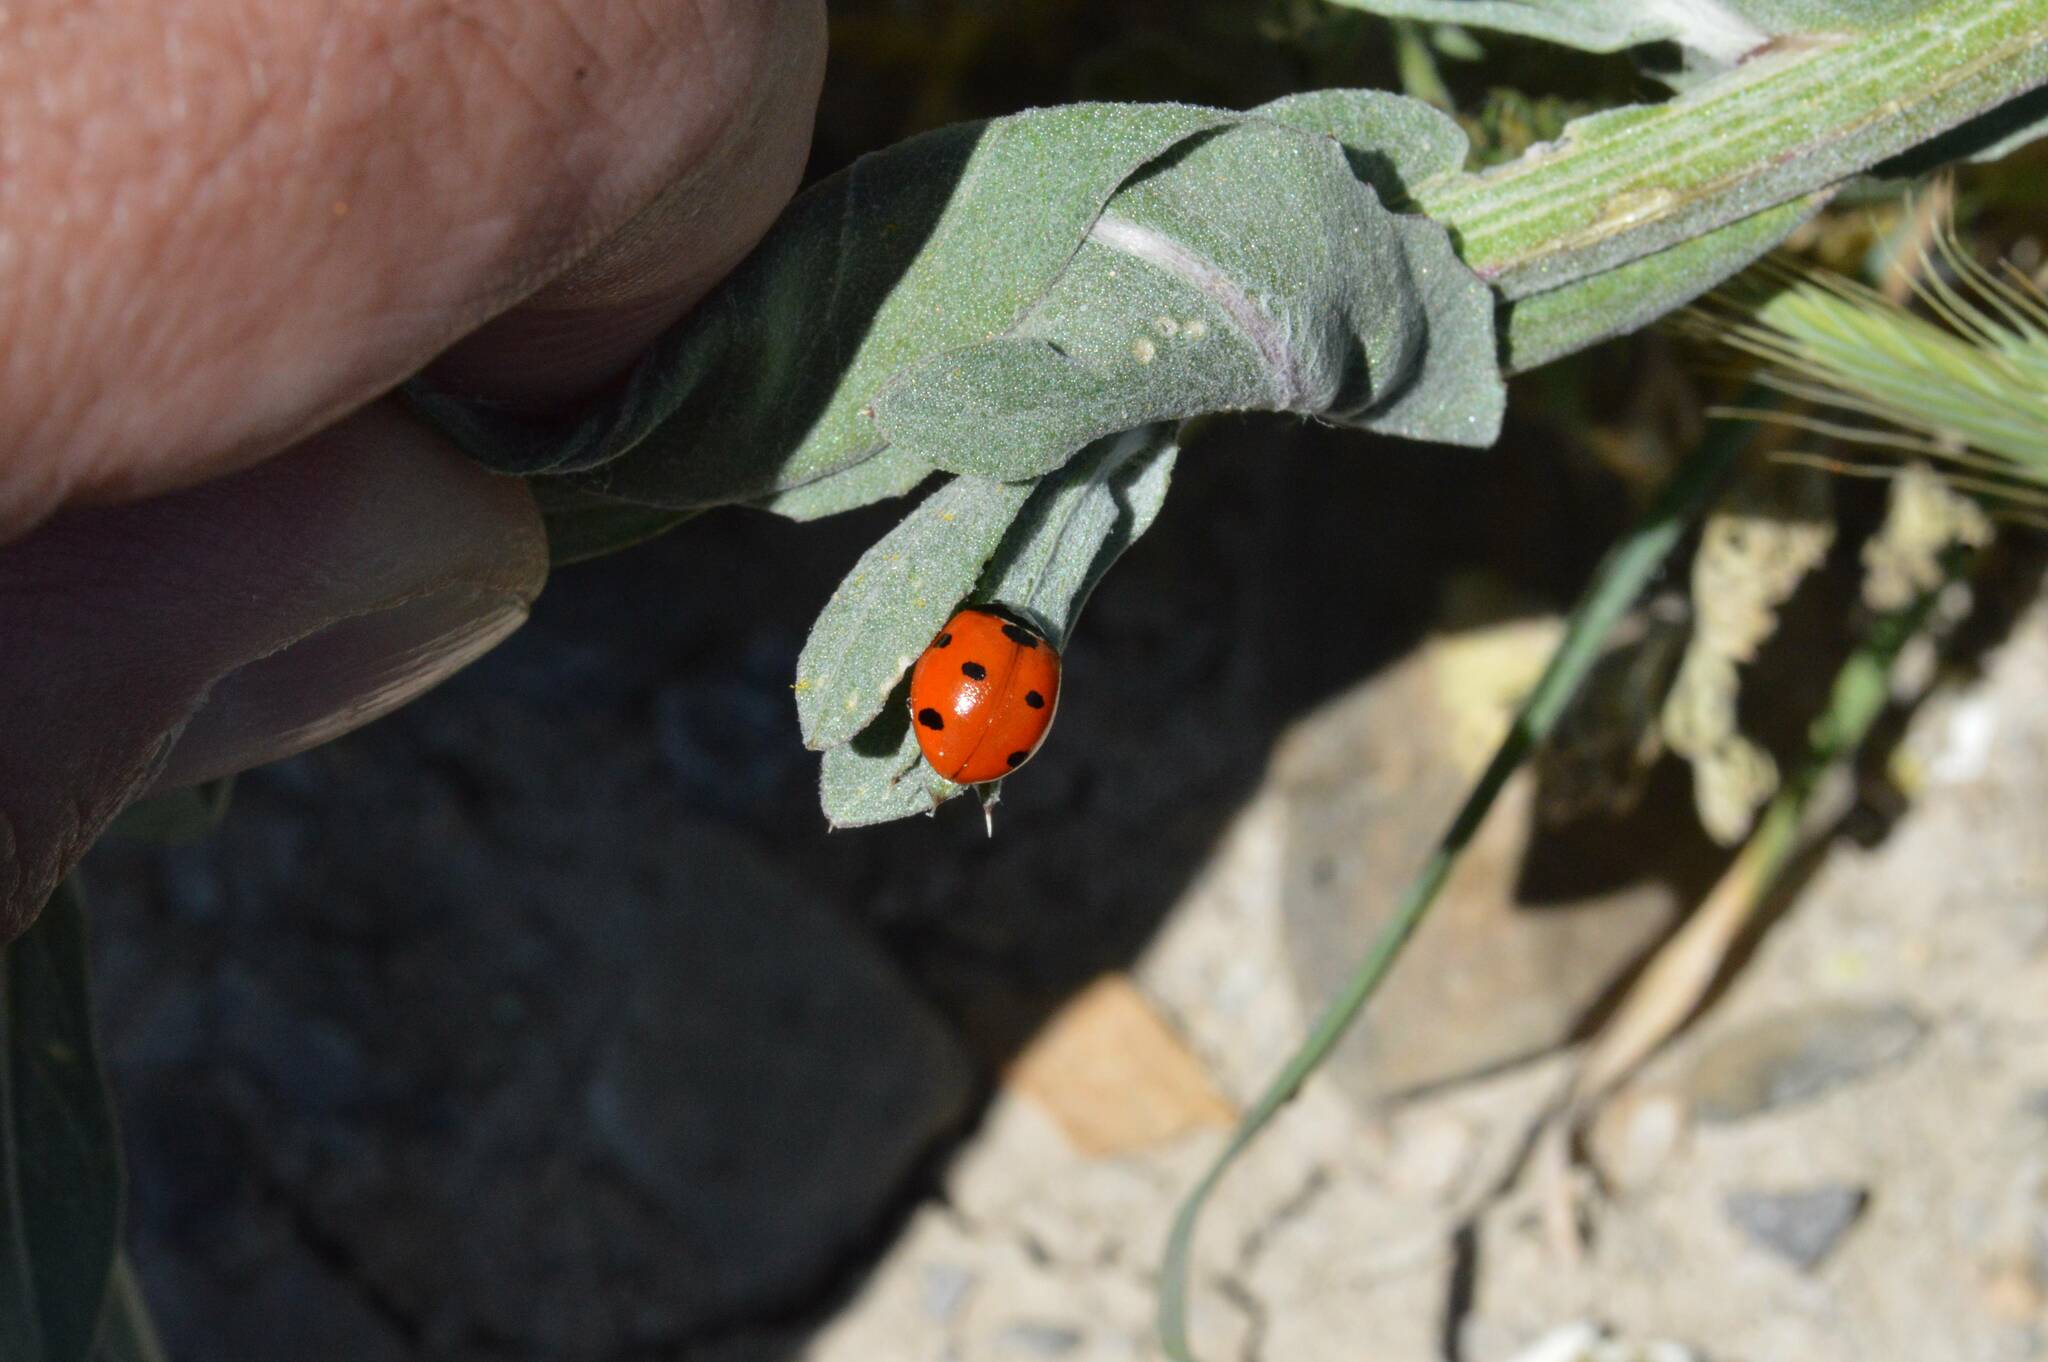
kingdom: Animalia
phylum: Arthropoda
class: Insecta
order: Coleoptera
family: Coccinellidae
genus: Coccinella
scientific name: Coccinella algerica
